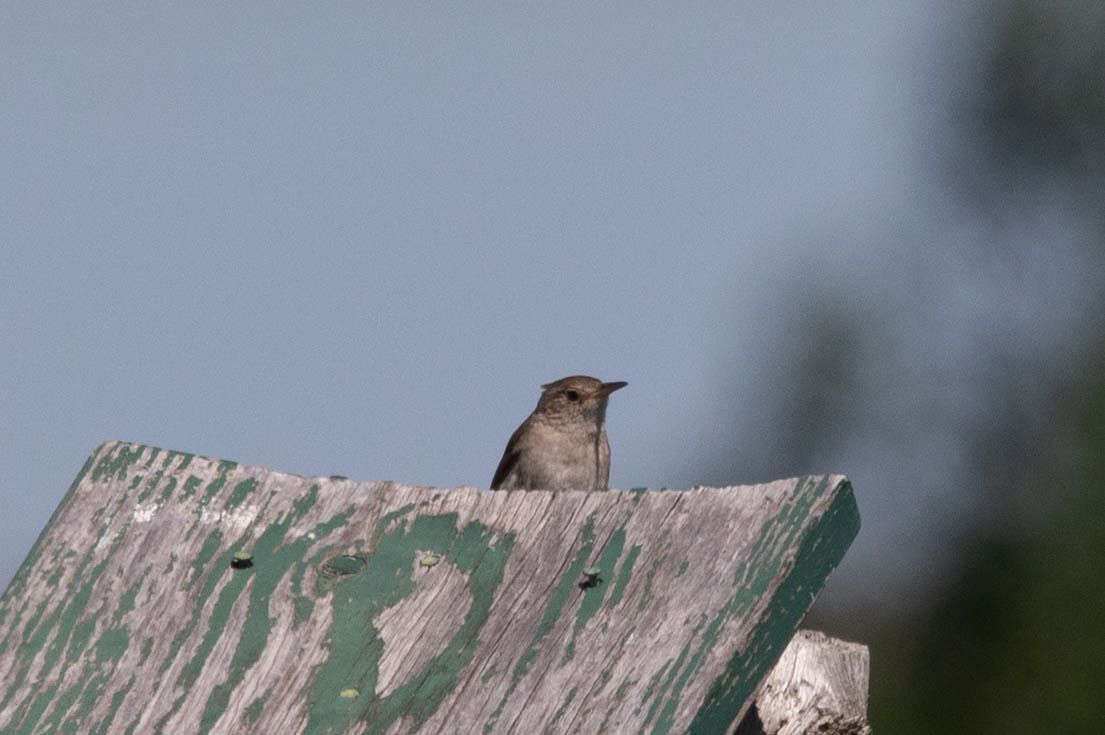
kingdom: Animalia
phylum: Chordata
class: Aves
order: Passeriformes
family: Troglodytidae
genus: Troglodytes
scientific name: Troglodytes aedon
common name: House wren
